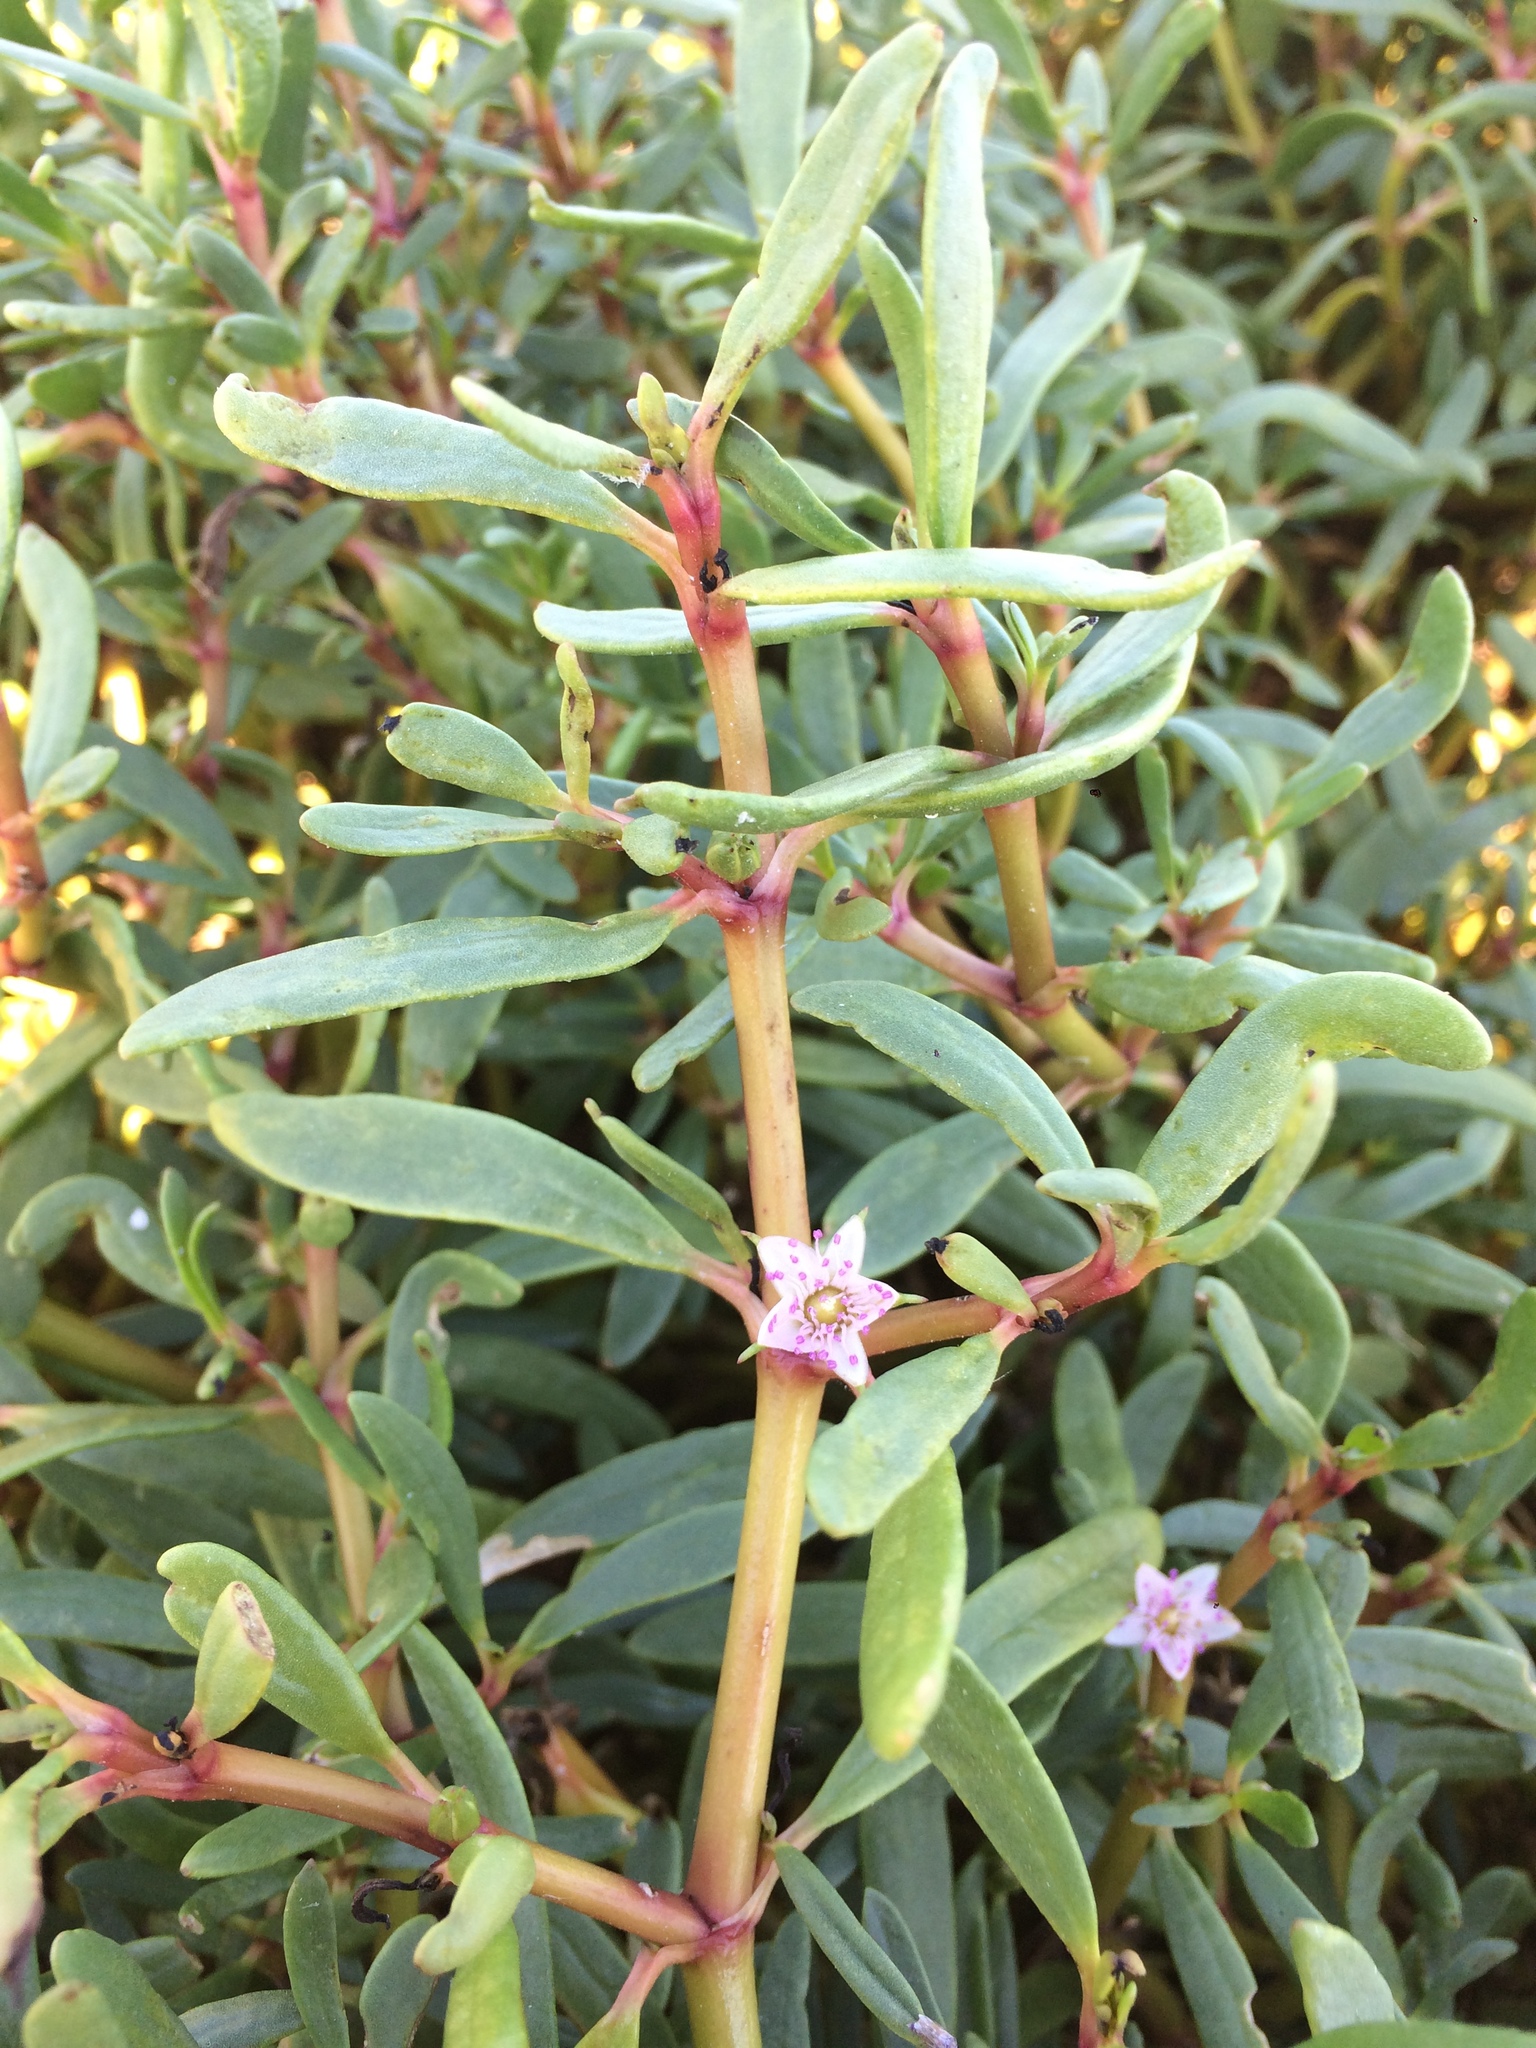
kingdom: Plantae
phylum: Tracheophyta
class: Magnoliopsida
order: Caryophyllales
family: Aizoaceae
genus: Sesuvium
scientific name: Sesuvium portulacastrum
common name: Sea-purslane
